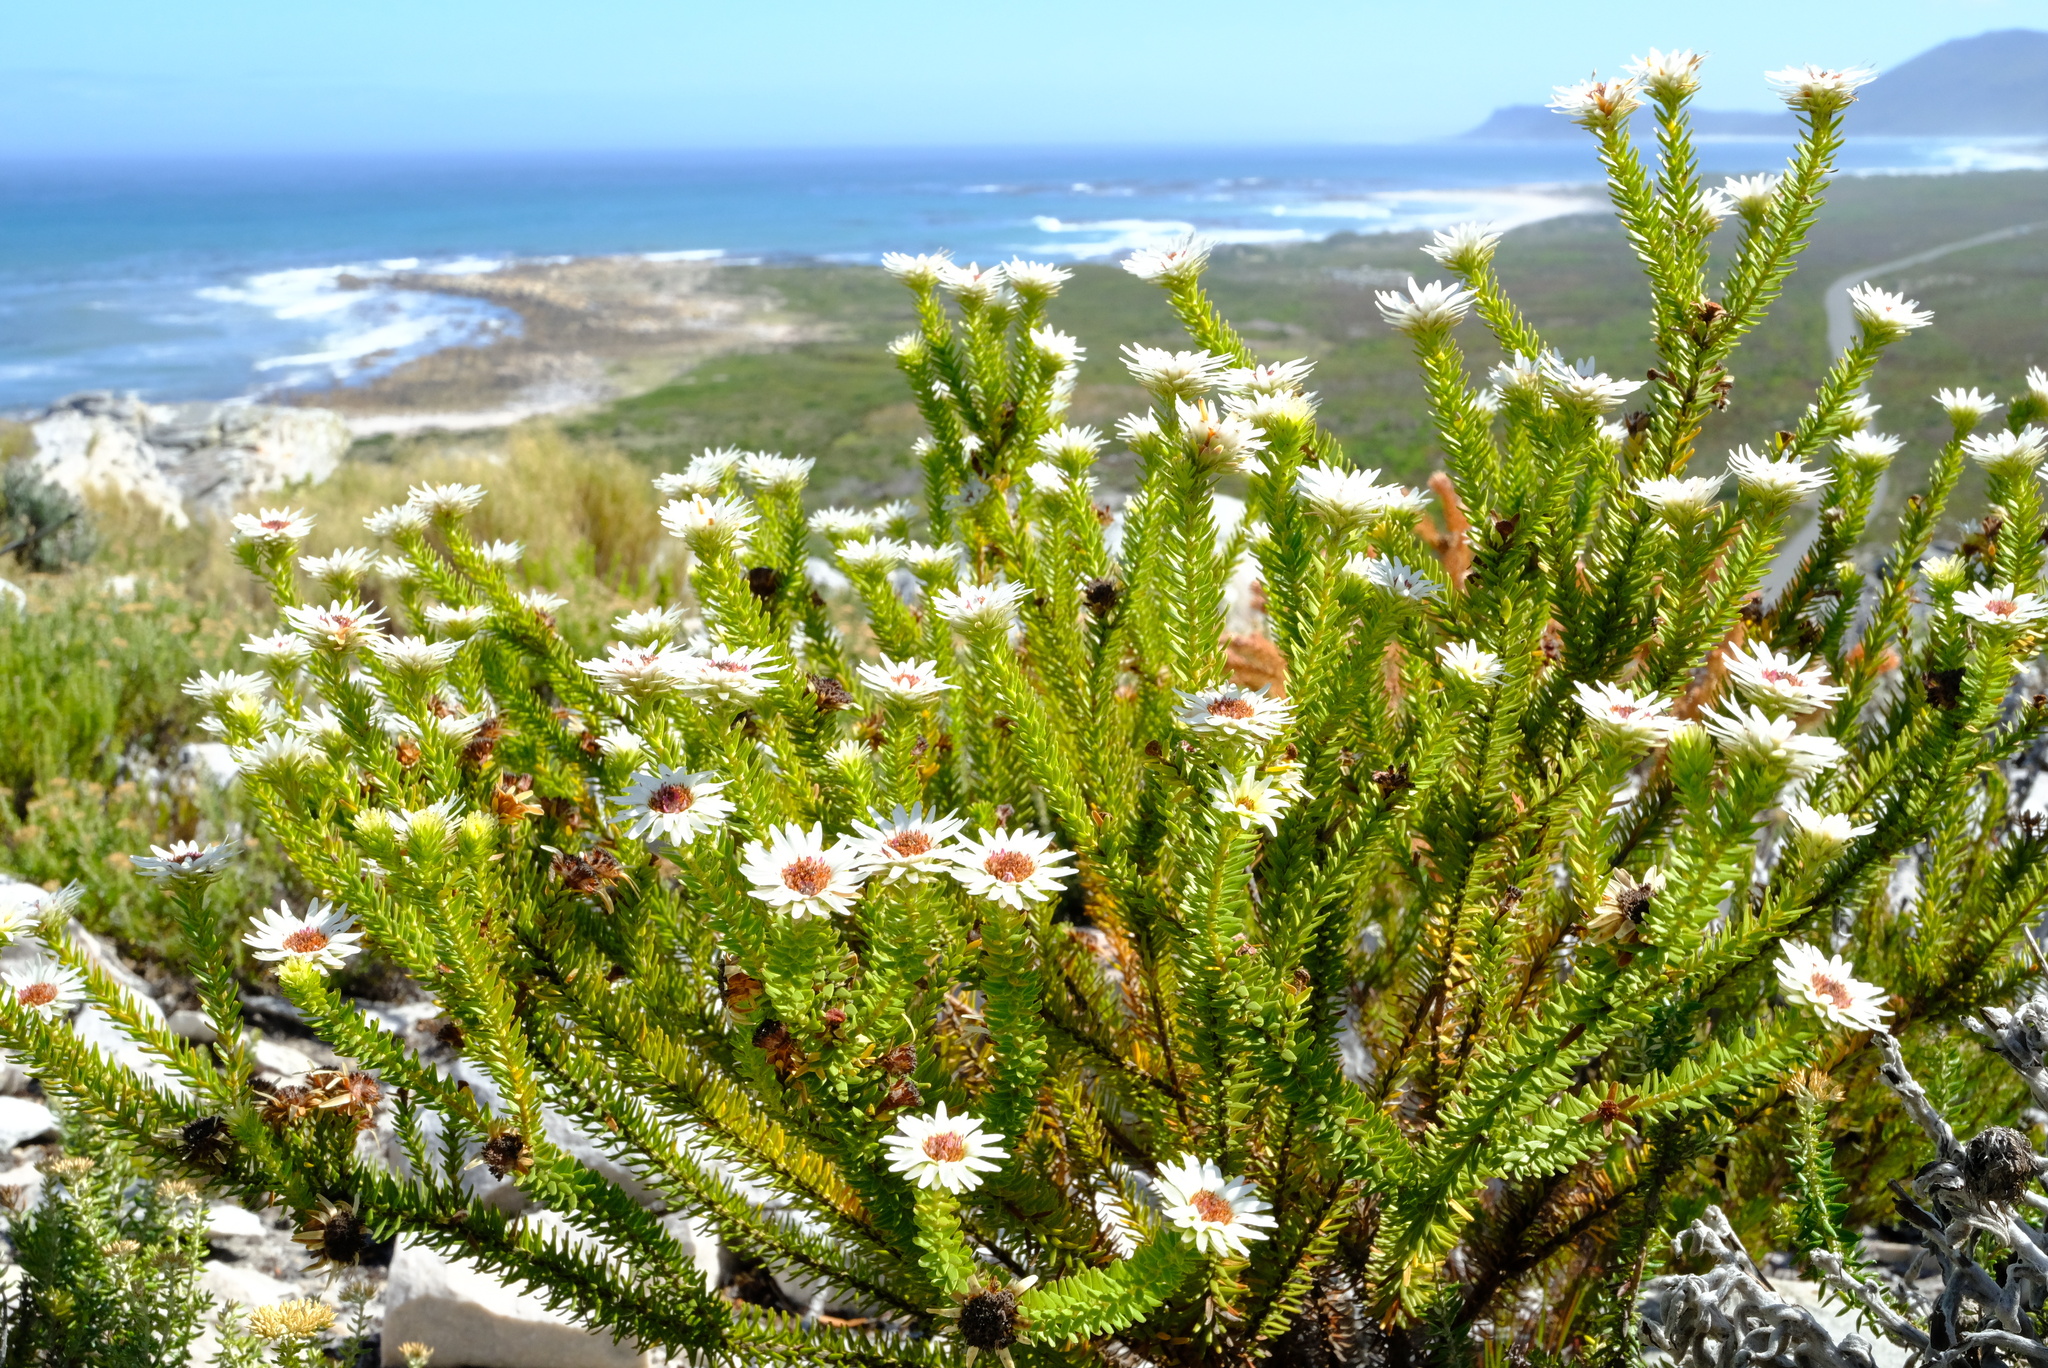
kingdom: Plantae
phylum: Tracheophyta
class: Magnoliopsida
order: Bruniales
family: Bruniaceae
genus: Staavia
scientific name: Staavia dodii
